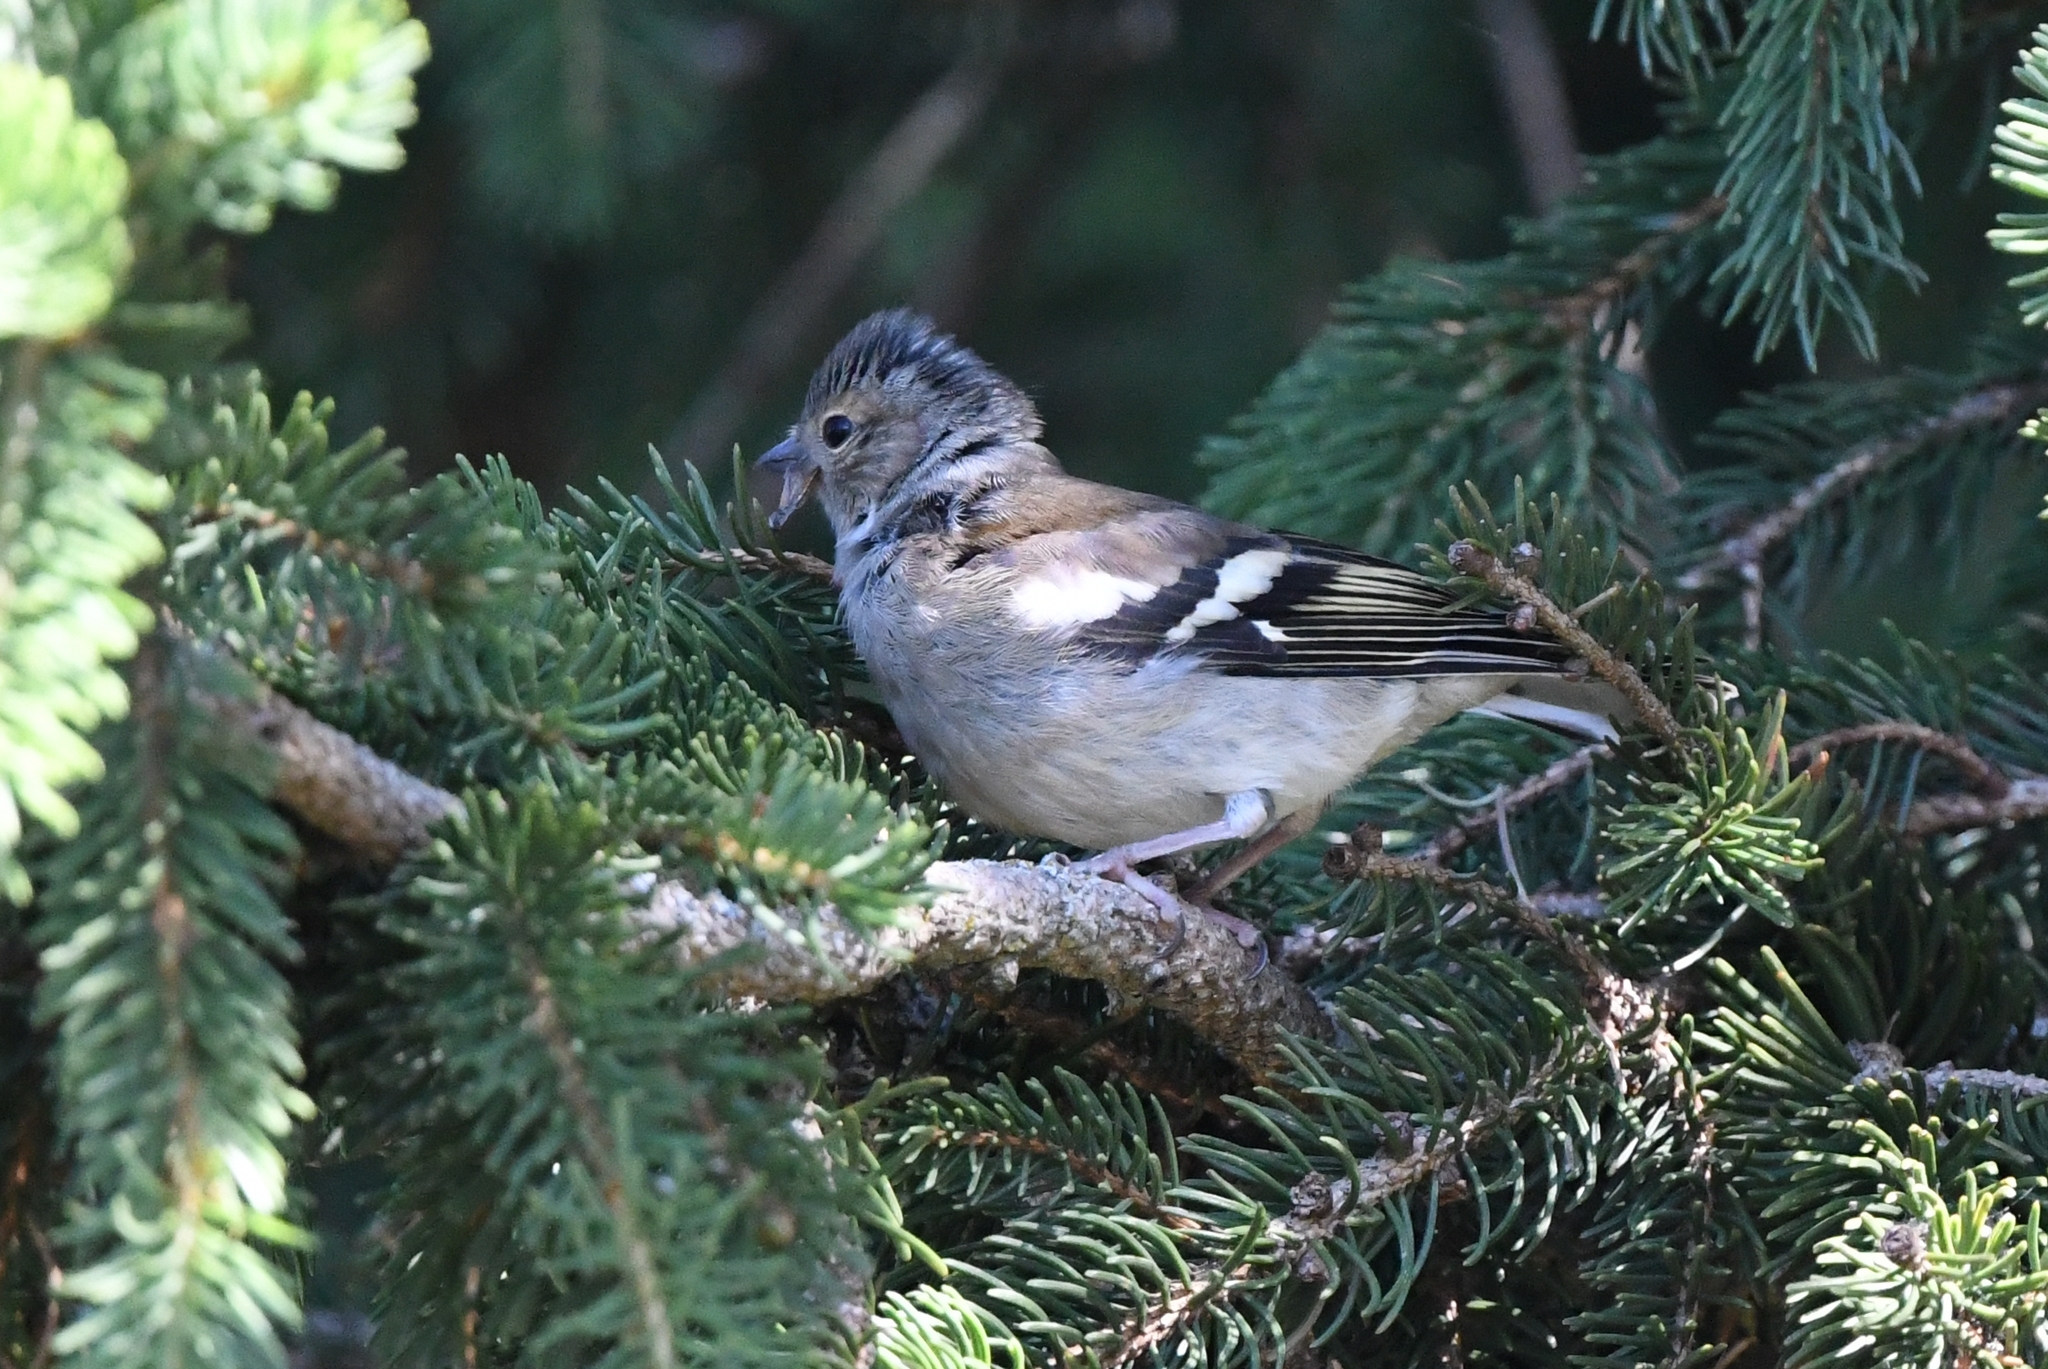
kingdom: Animalia
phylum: Chordata
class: Aves
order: Passeriformes
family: Fringillidae
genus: Fringilla
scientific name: Fringilla coelebs
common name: Common chaffinch
